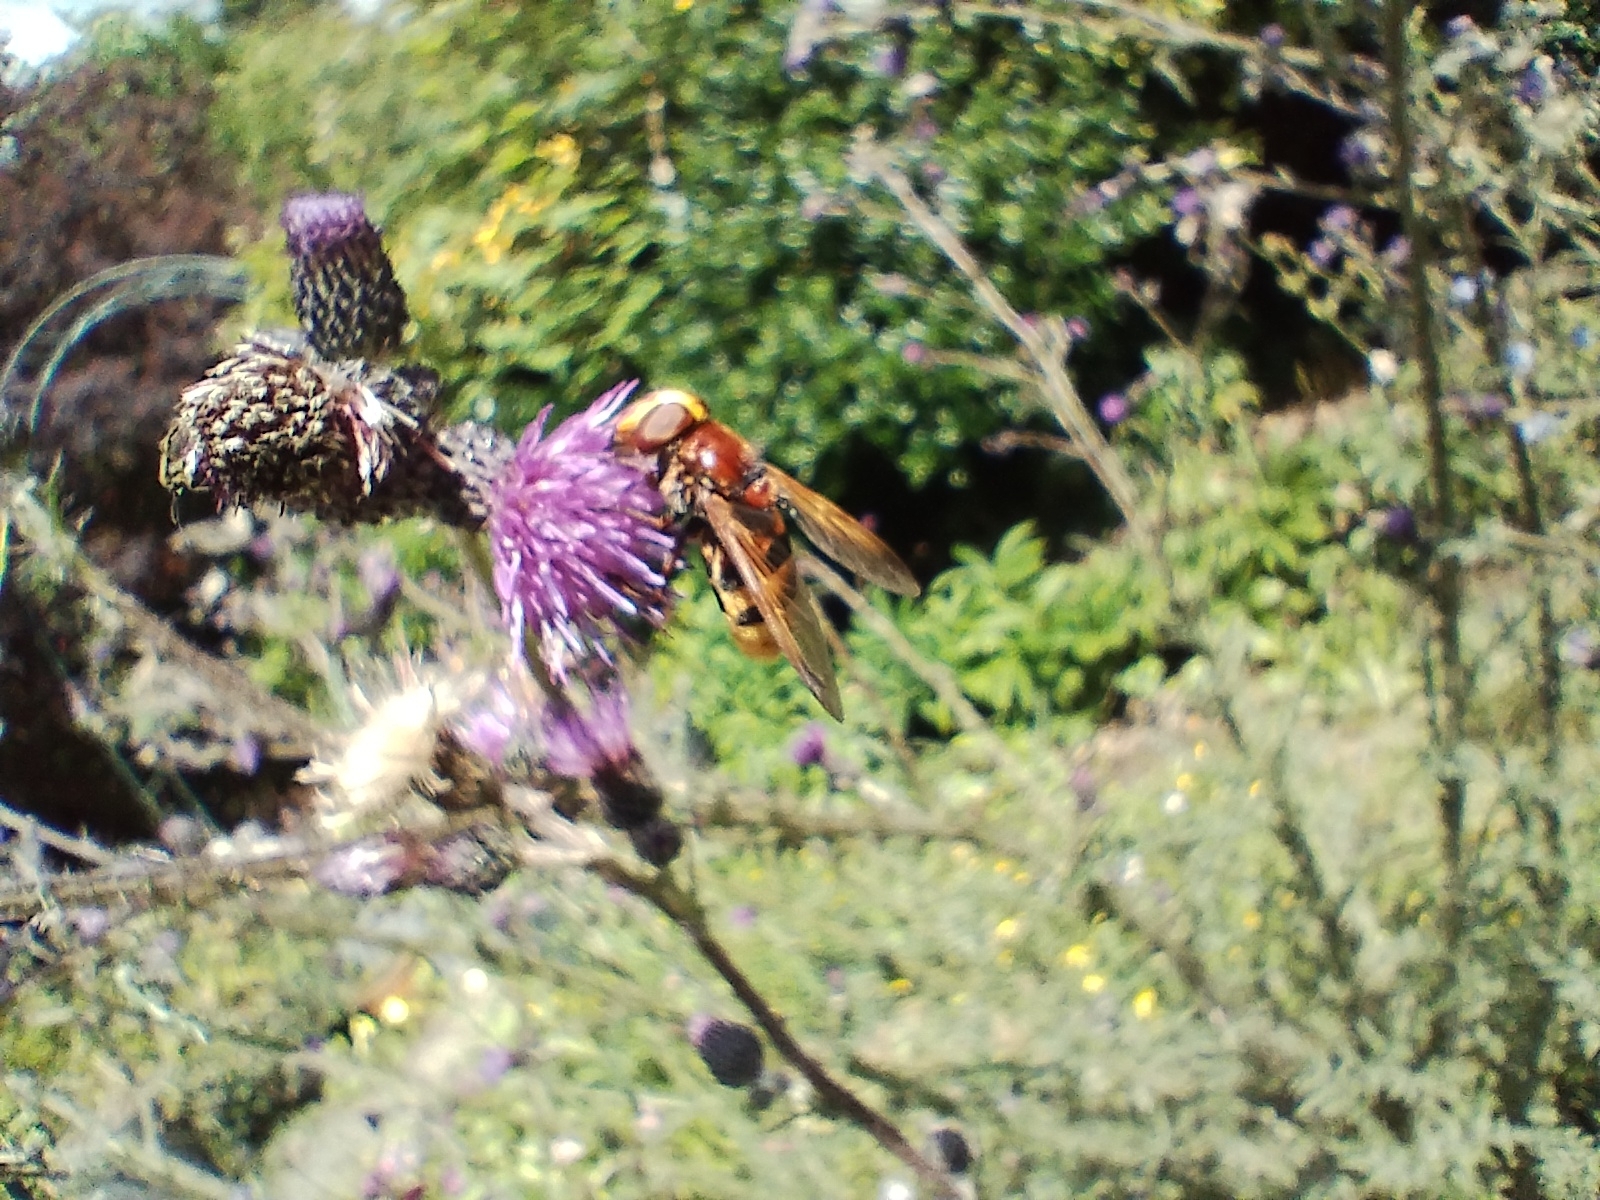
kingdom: Animalia
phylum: Arthropoda
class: Insecta
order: Diptera
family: Syrphidae
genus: Volucella
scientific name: Volucella zonaria
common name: Hornet hoverfly
